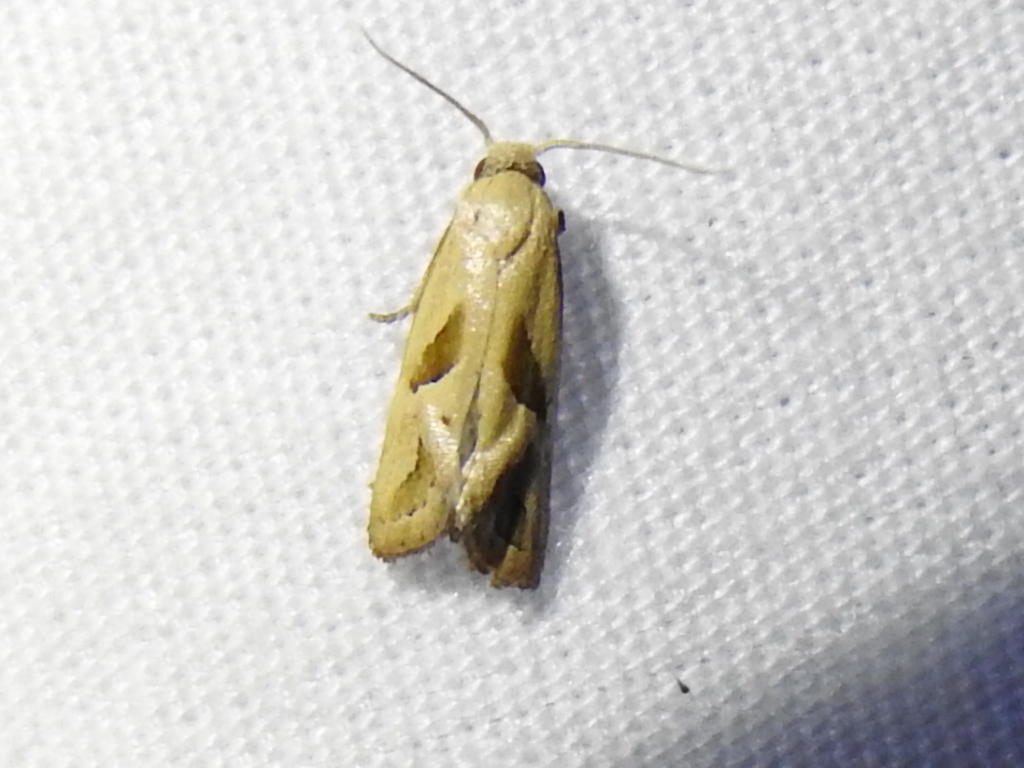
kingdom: Animalia
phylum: Arthropoda
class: Insecta
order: Lepidoptera
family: Tortricidae
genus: Eugnosta
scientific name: Eugnosta bimaculana
